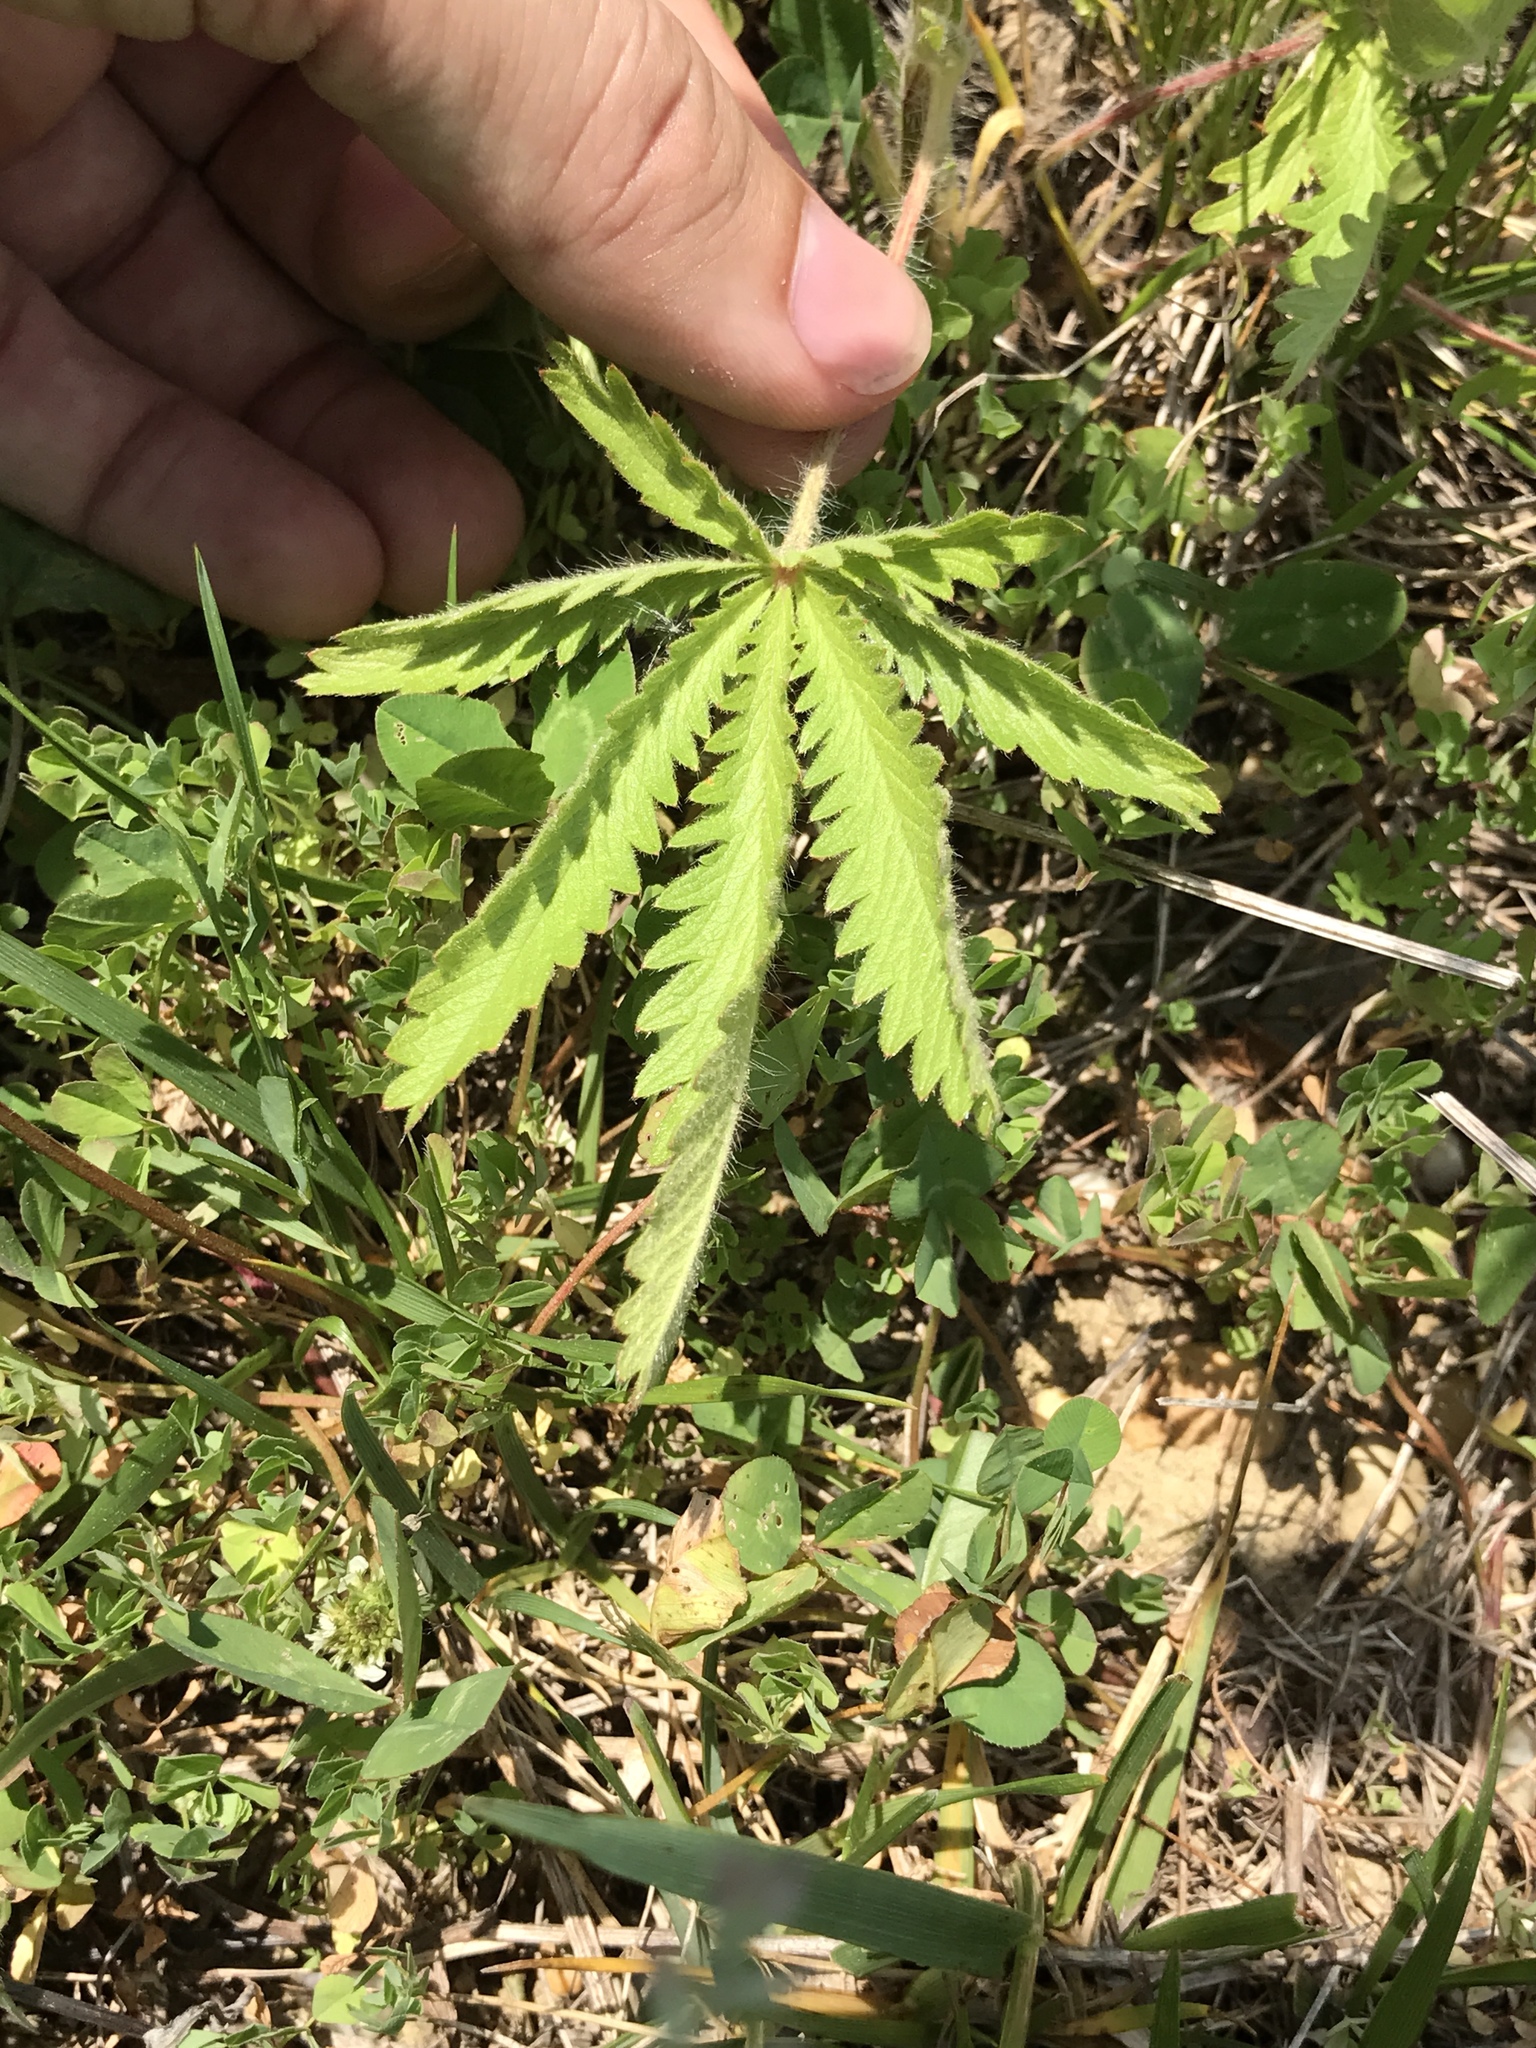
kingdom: Plantae
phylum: Tracheophyta
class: Magnoliopsida
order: Rosales
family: Rosaceae
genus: Potentilla
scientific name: Potentilla recta
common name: Sulphur cinquefoil
